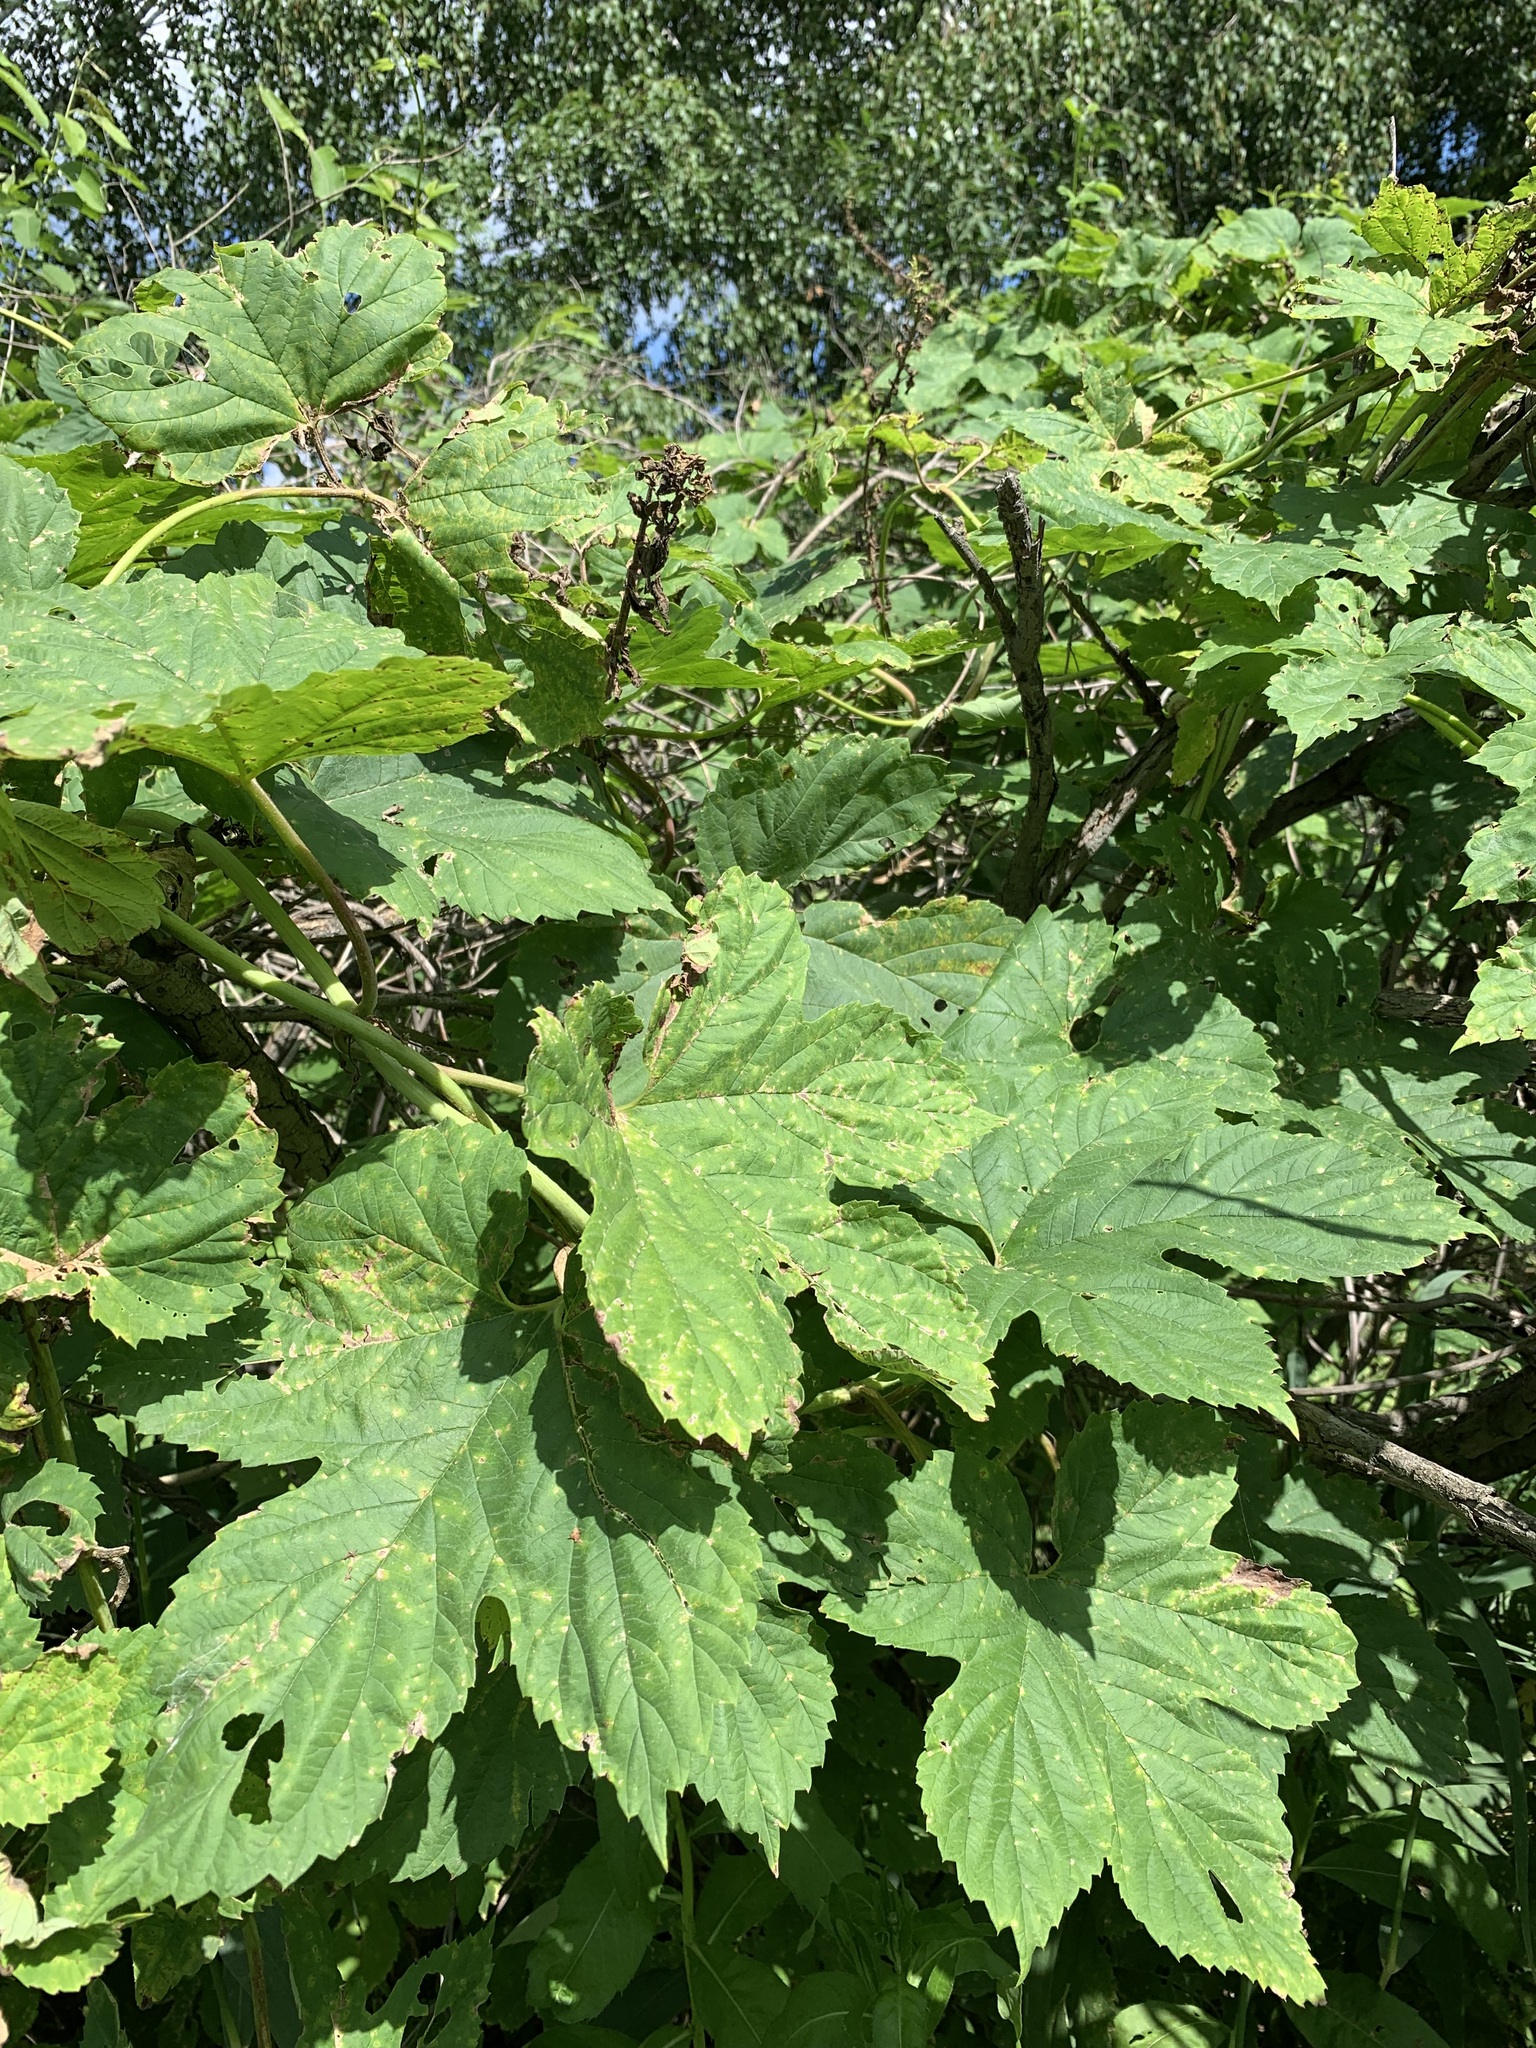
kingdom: Plantae
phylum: Tracheophyta
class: Magnoliopsida
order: Rosales
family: Cannabaceae
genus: Humulus
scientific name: Humulus lupulus
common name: Hop
